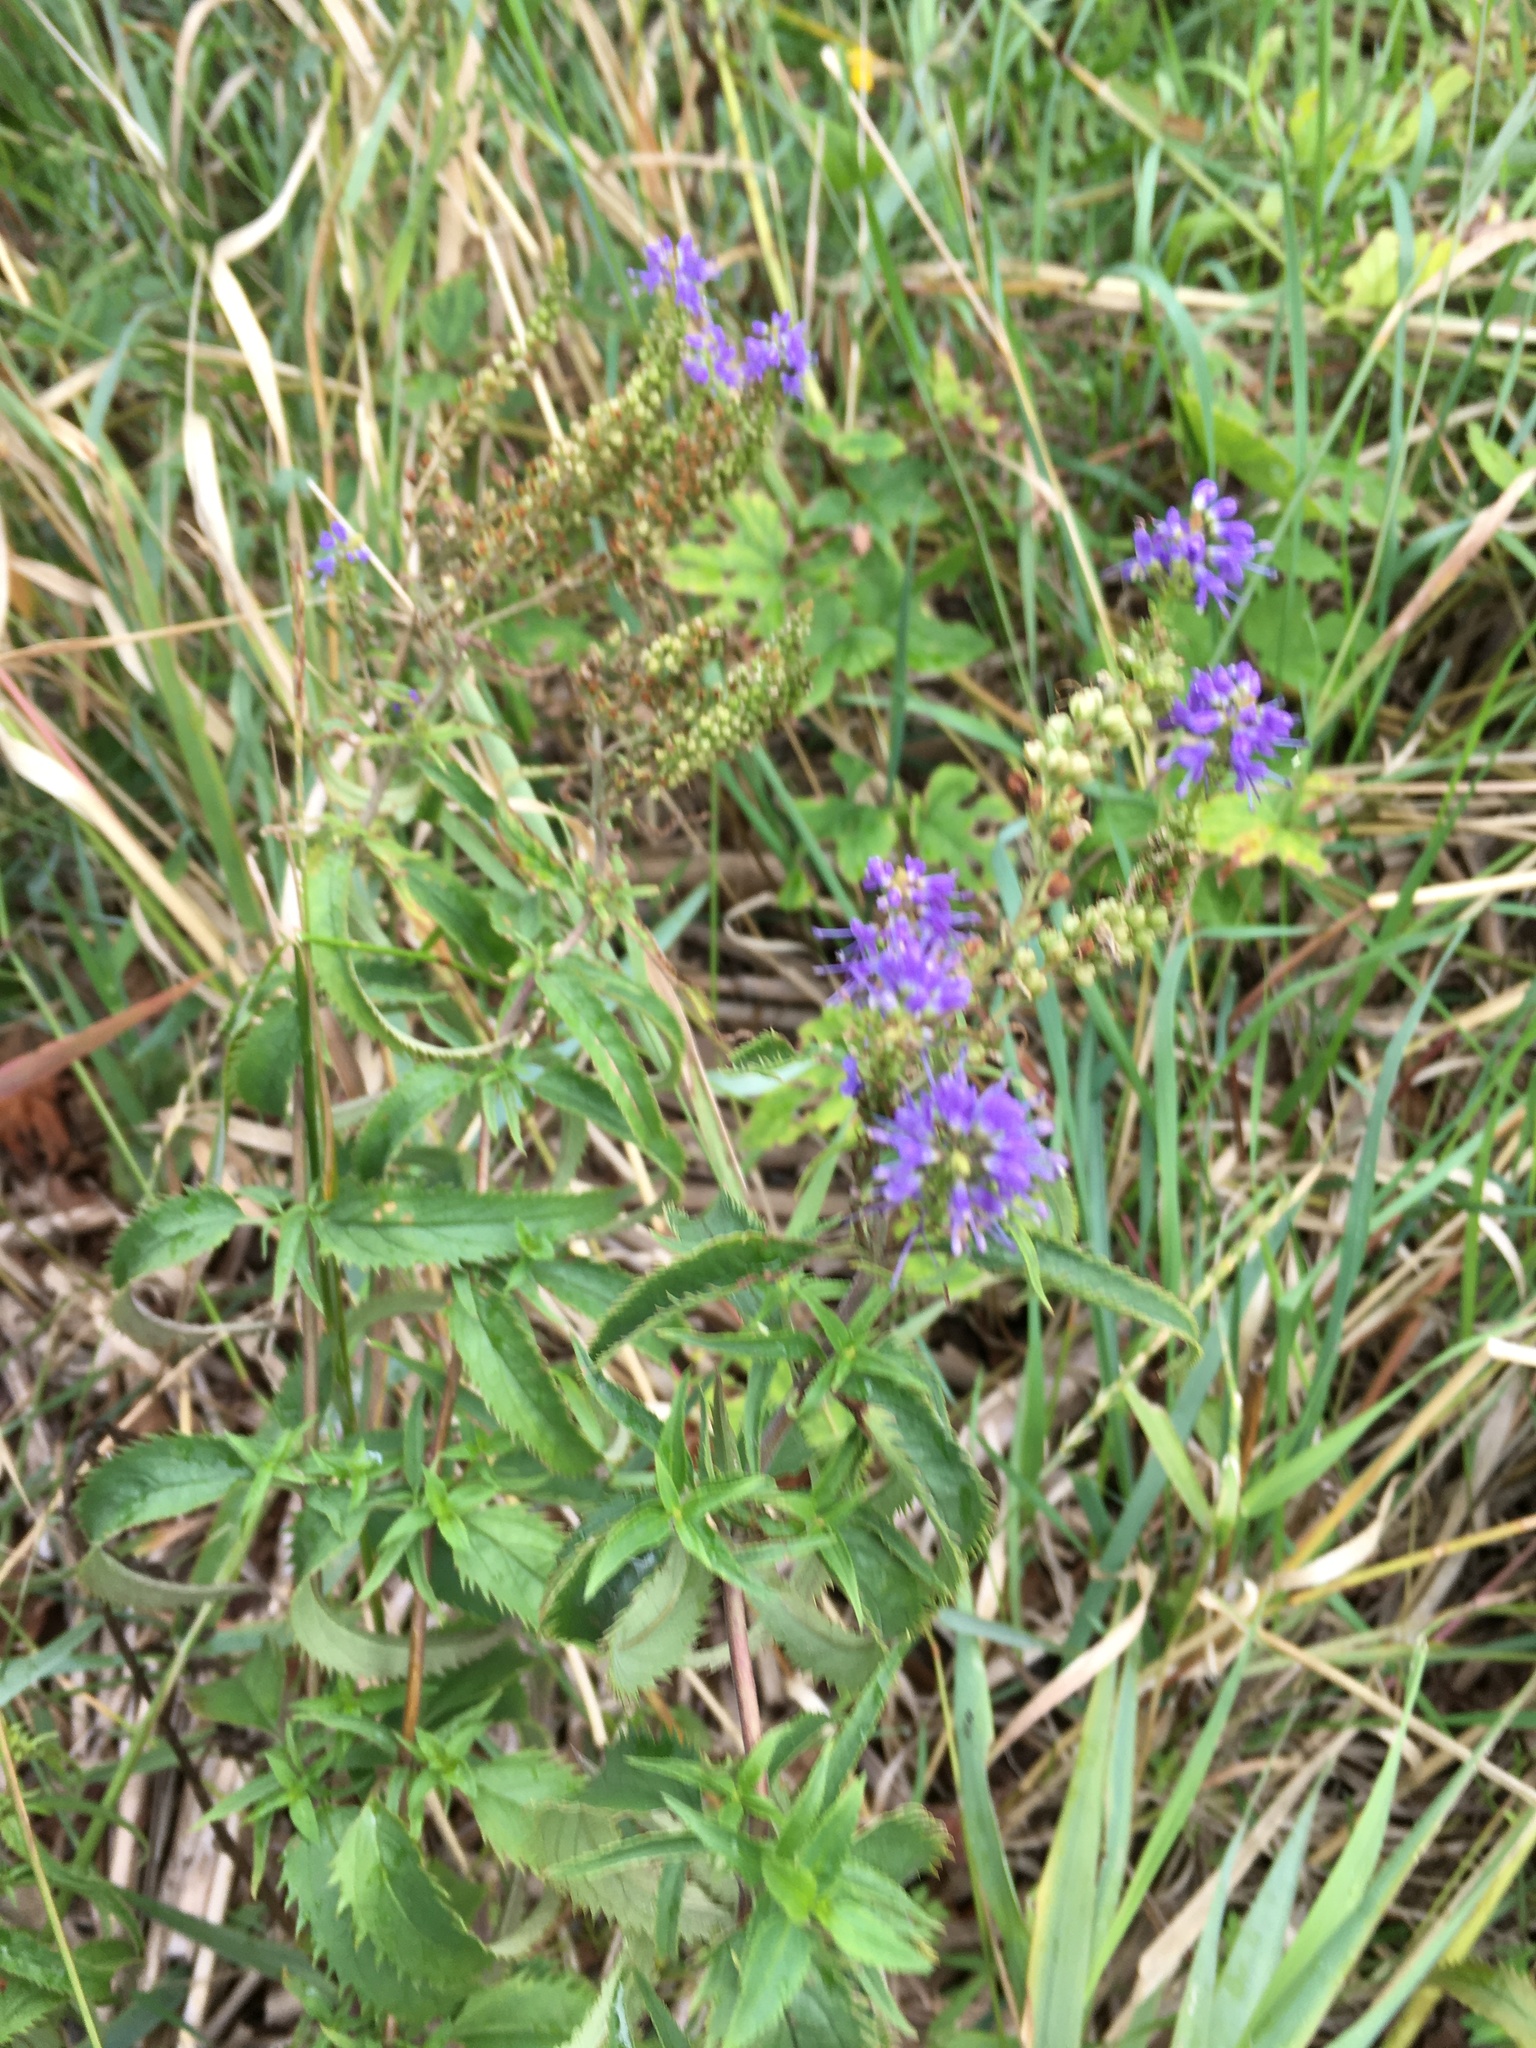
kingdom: Plantae
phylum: Tracheophyta
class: Magnoliopsida
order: Lamiales
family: Plantaginaceae
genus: Veronica
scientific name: Veronica longifolia
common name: Garden speedwell
